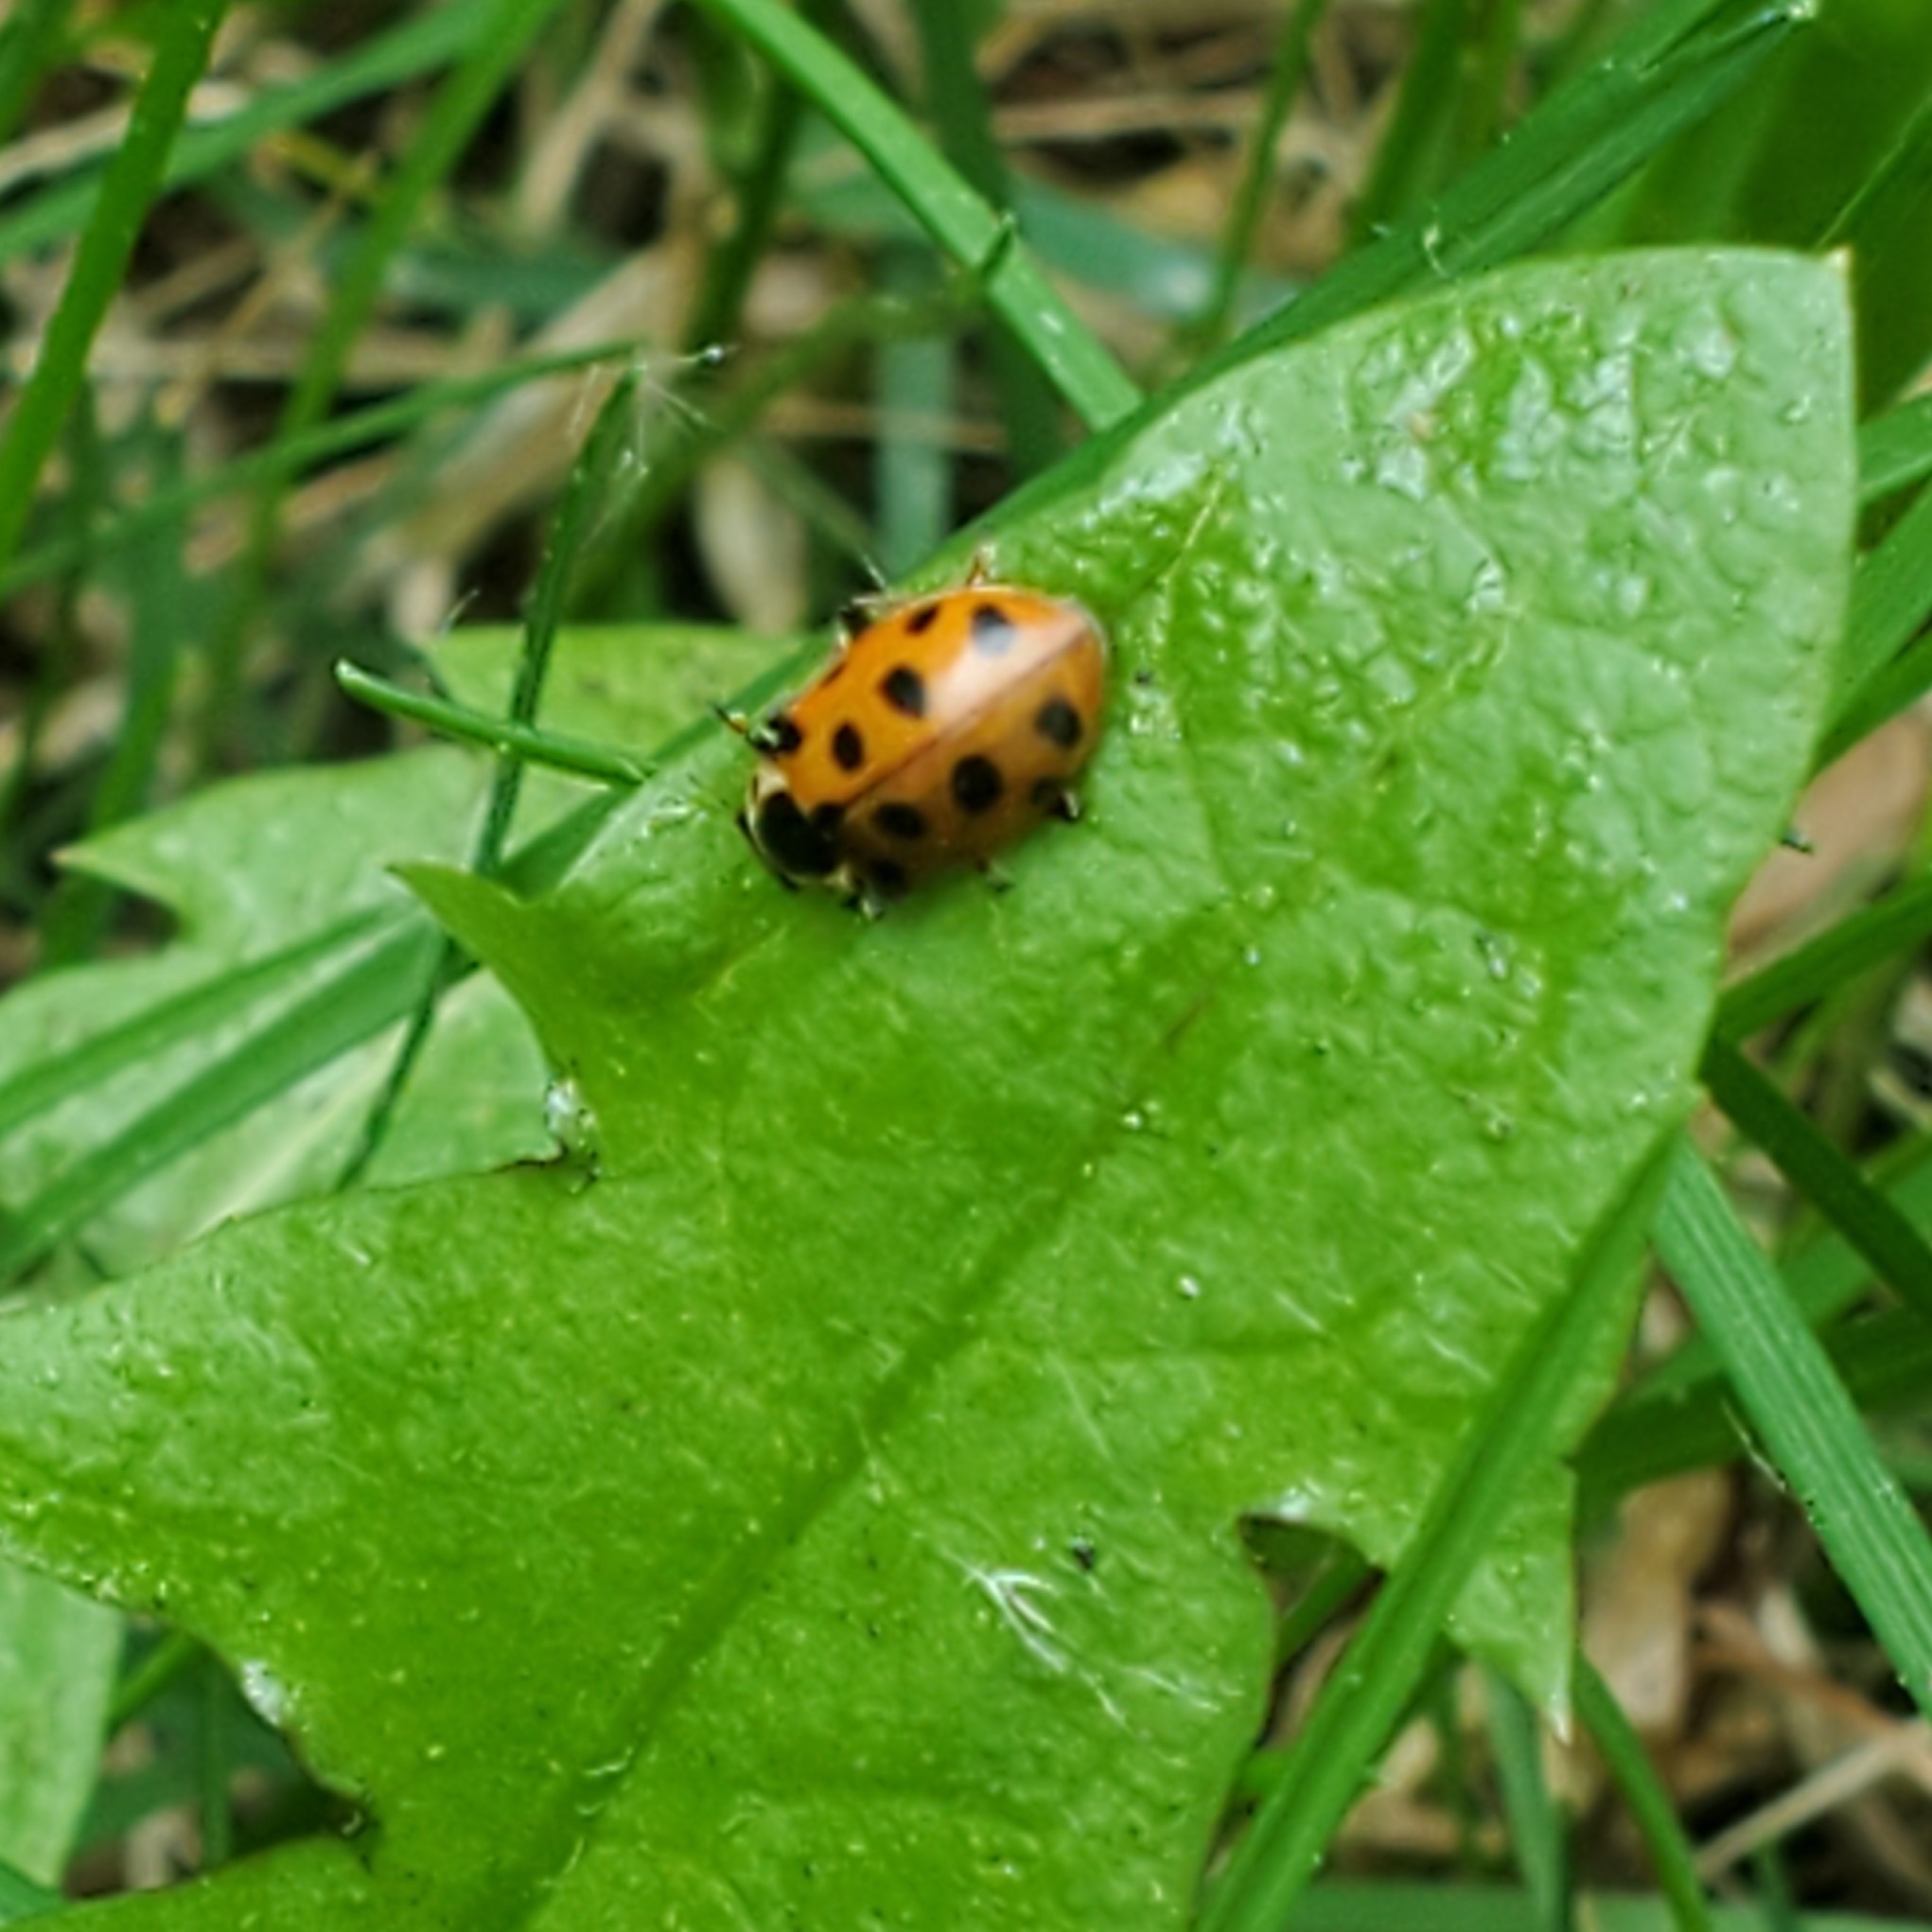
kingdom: Animalia
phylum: Arthropoda
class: Insecta
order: Coleoptera
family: Coccinellidae
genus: Hippodamia
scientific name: Hippodamia tredecimpunctata
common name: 13-spot ladybird
